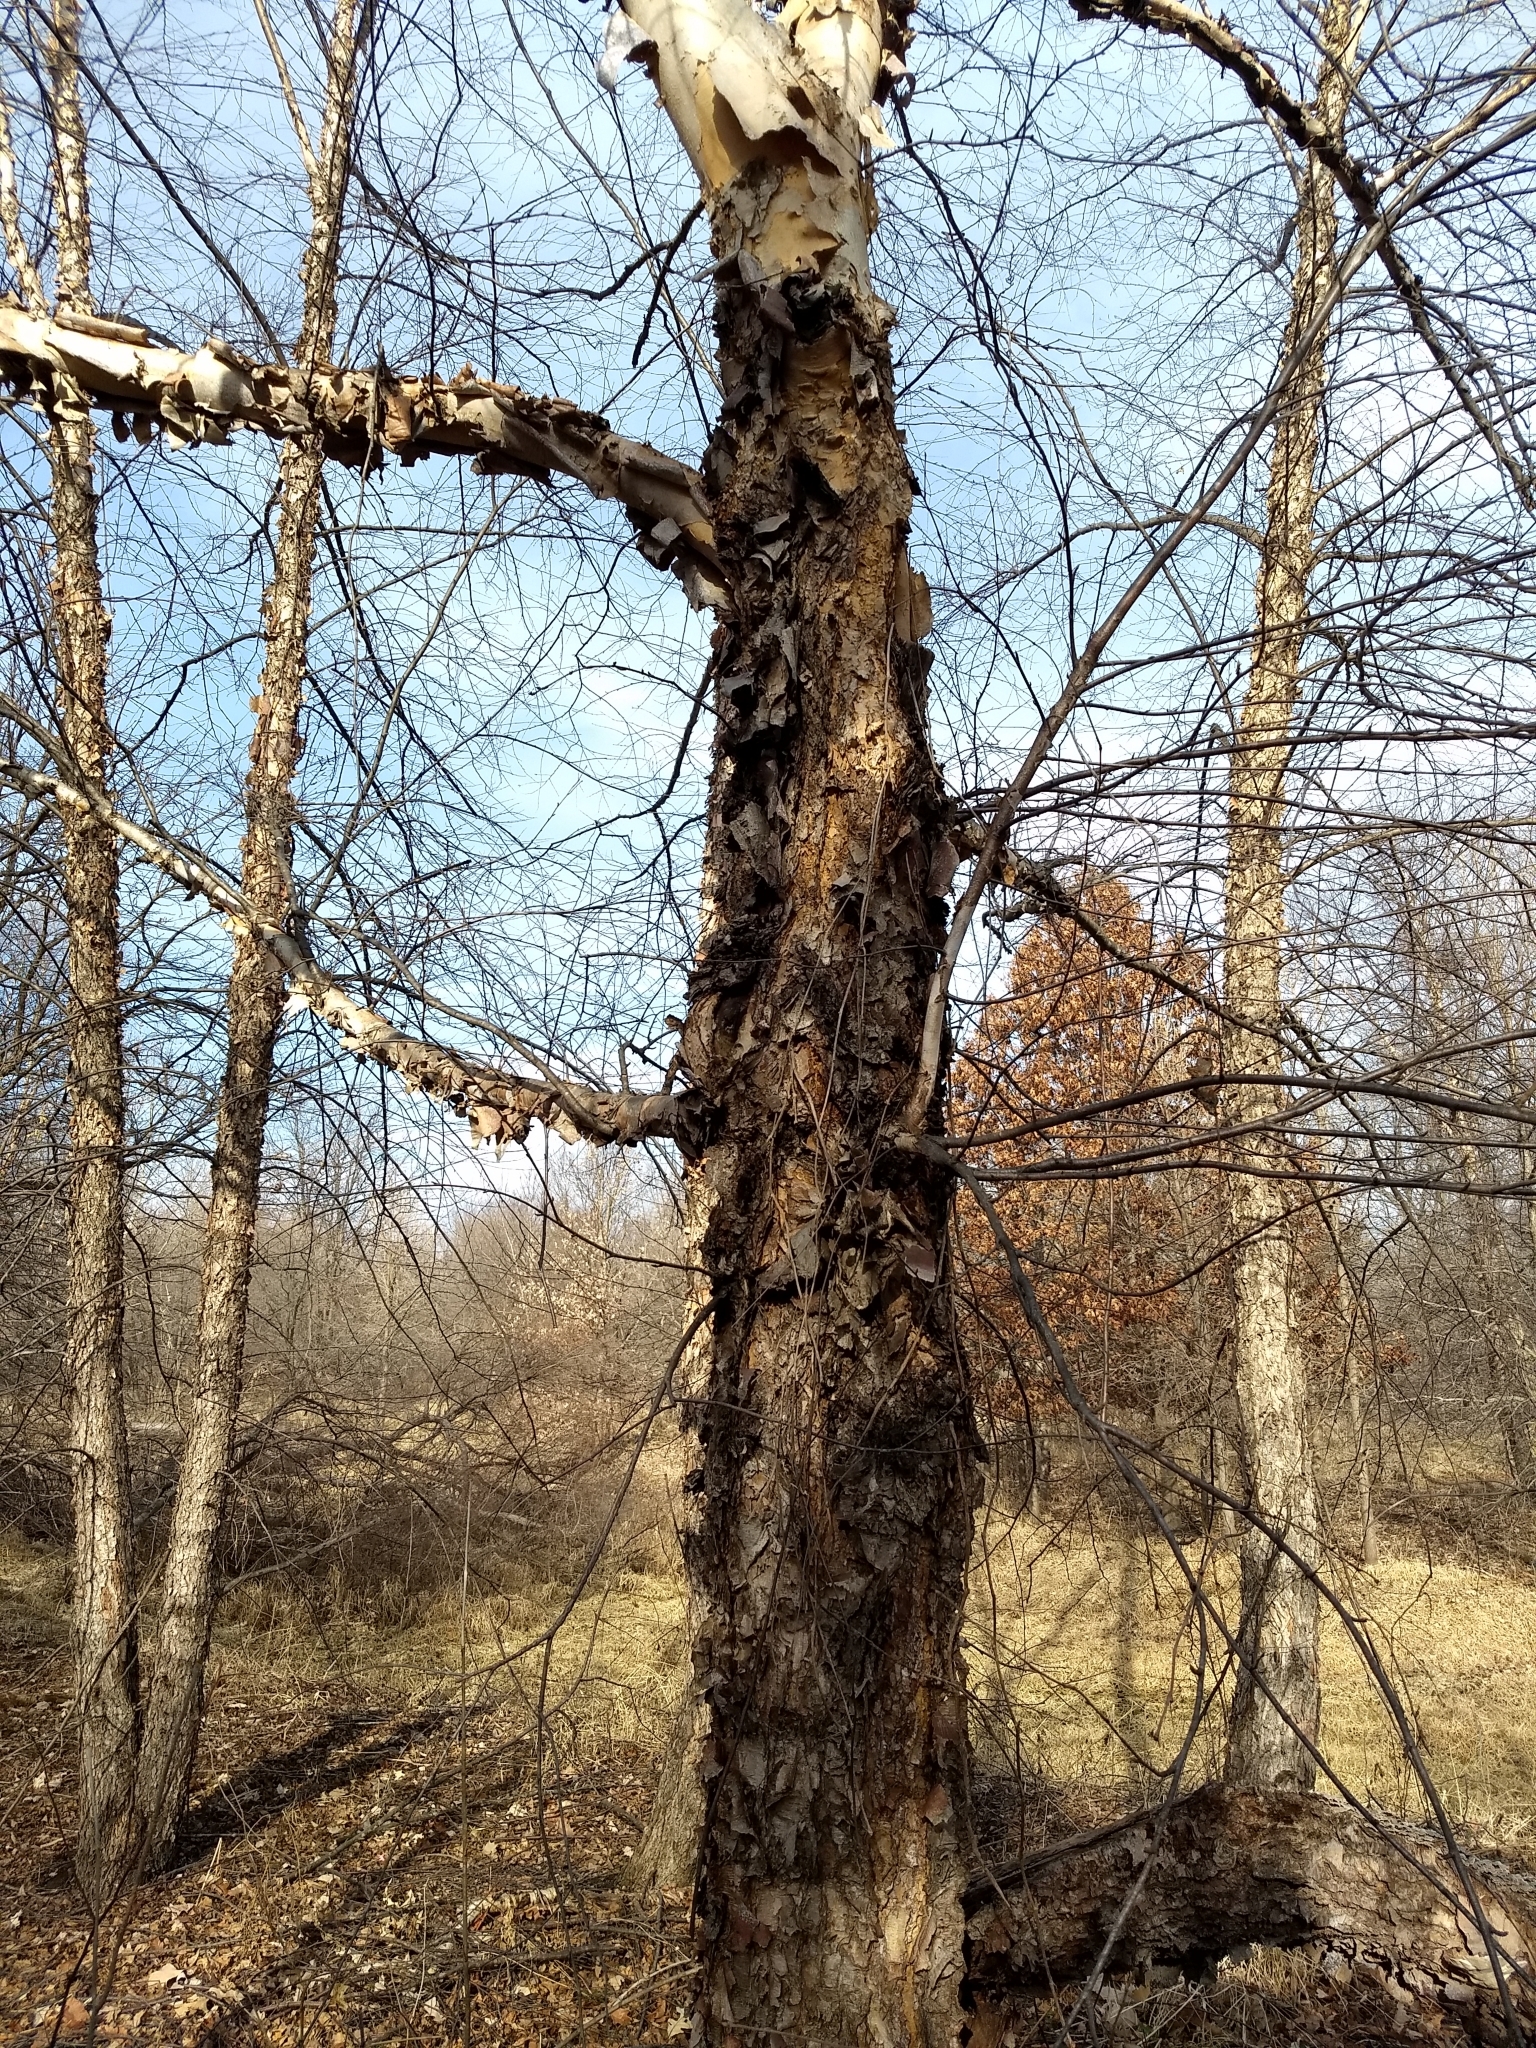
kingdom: Plantae
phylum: Tracheophyta
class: Magnoliopsida
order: Fagales
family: Betulaceae
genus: Betula
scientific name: Betula nigra
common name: Black birch
